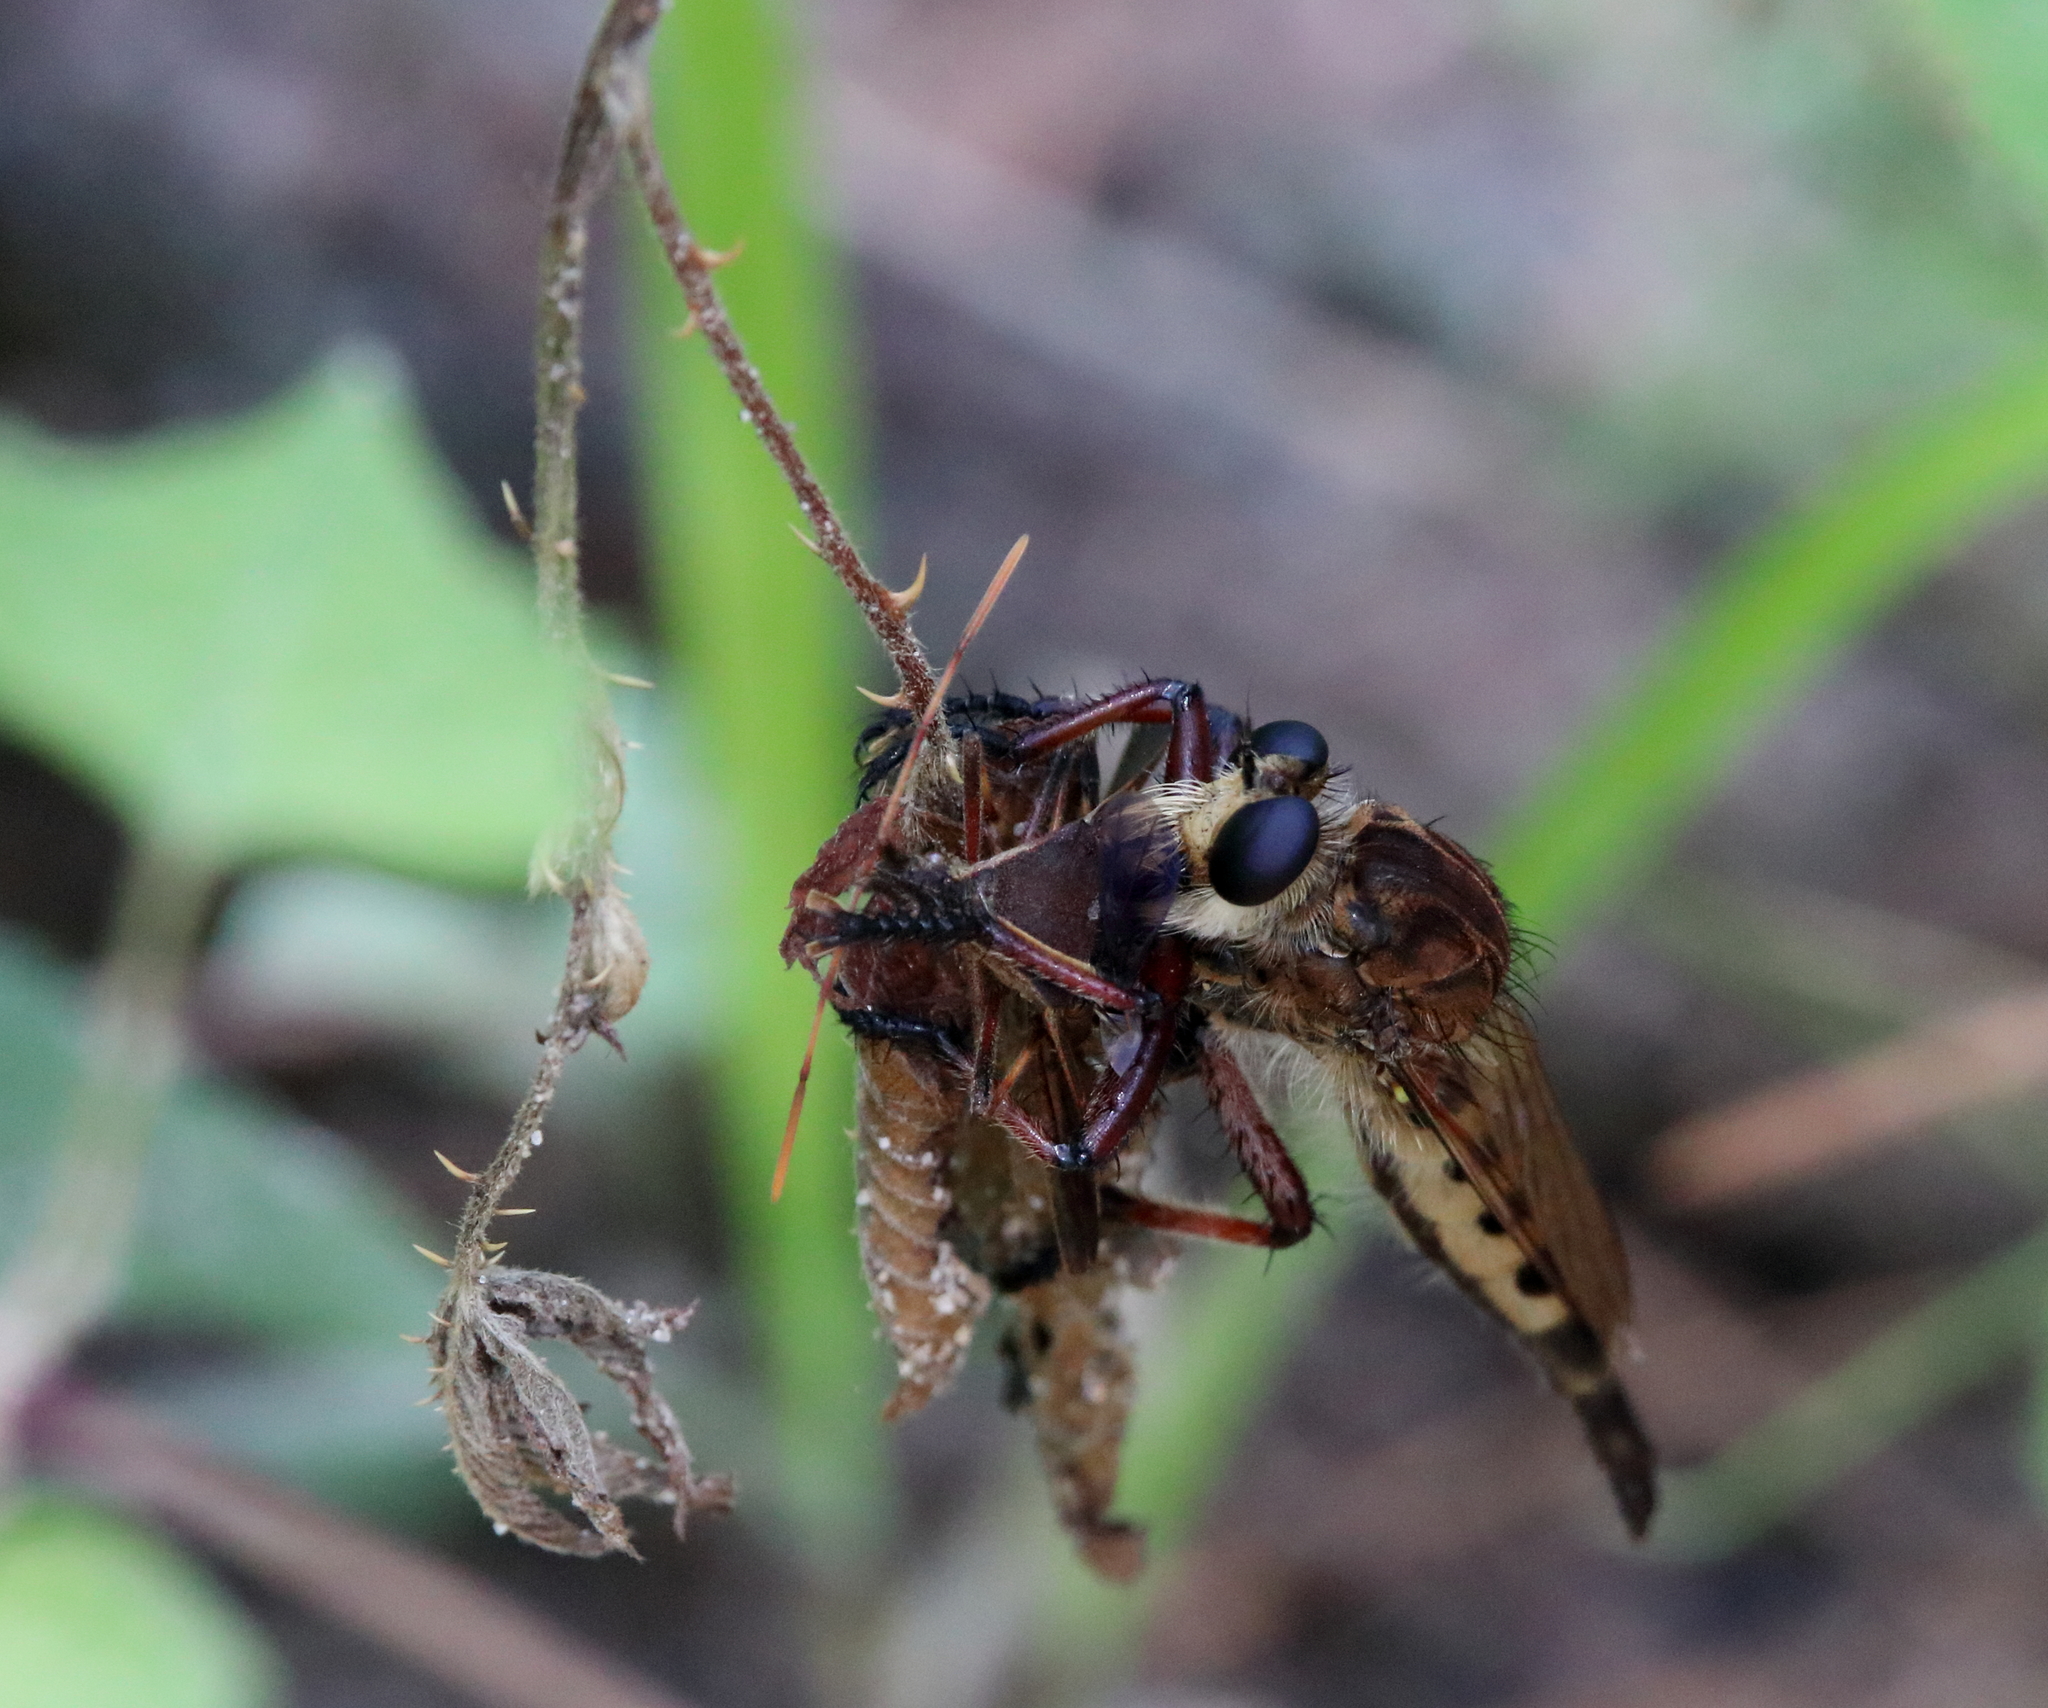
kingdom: Animalia
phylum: Arthropoda
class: Insecta
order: Diptera
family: Asilidae
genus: Promachus
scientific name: Promachus hinei
